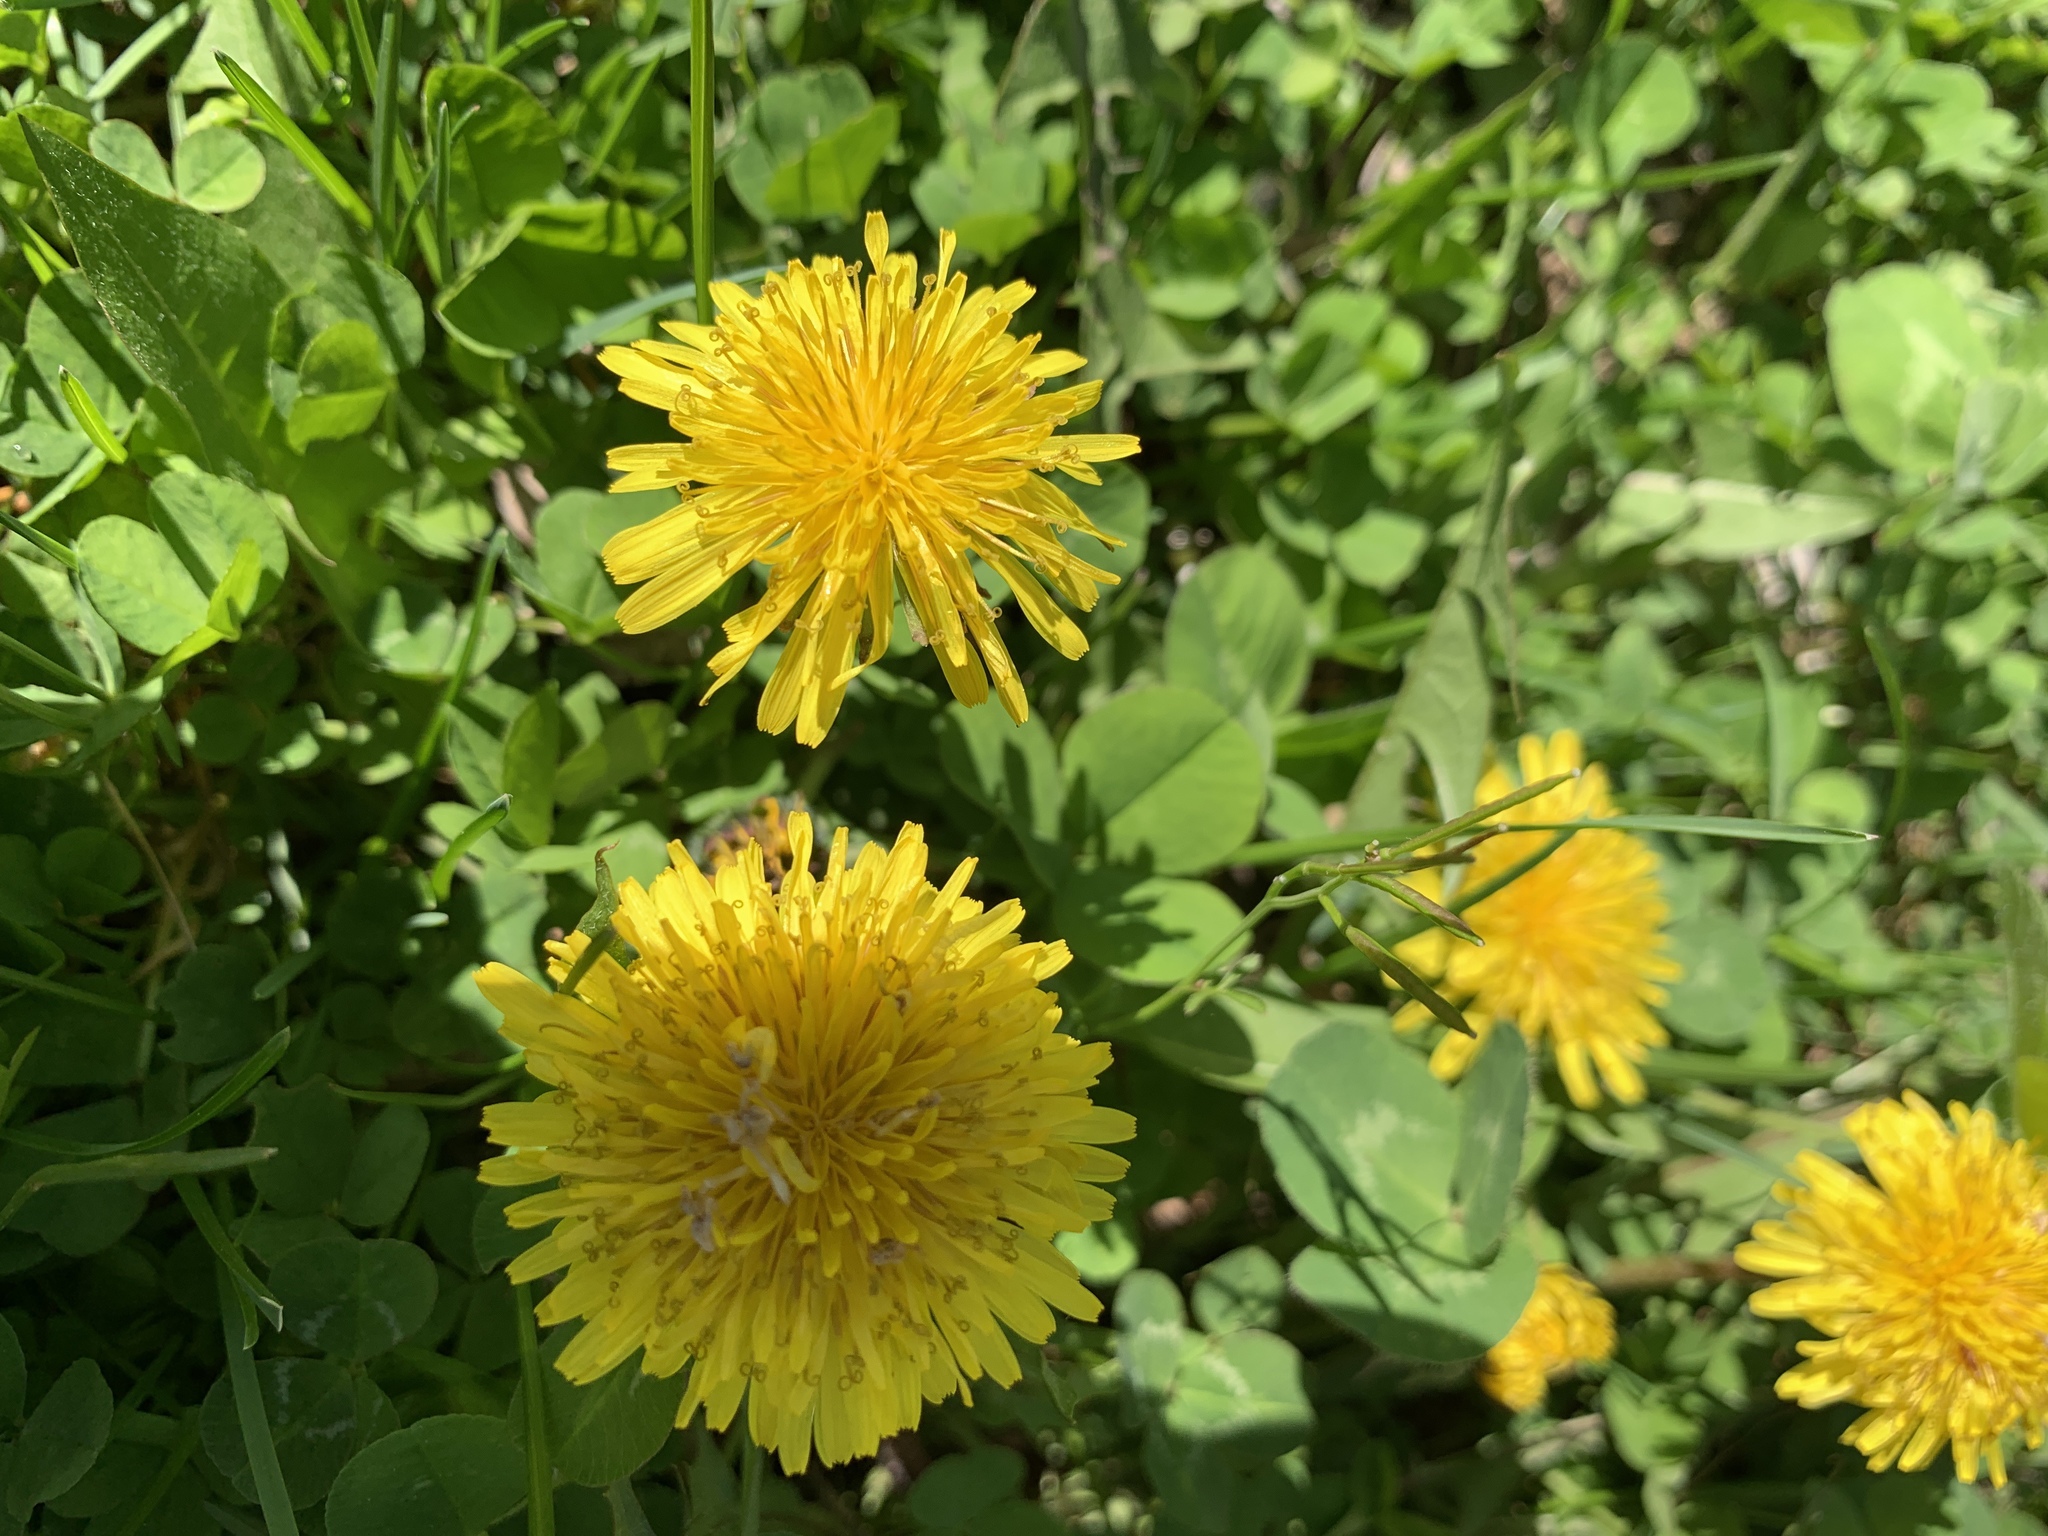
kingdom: Plantae
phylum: Tracheophyta
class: Magnoliopsida
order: Asterales
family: Asteraceae
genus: Taraxacum
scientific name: Taraxacum officinale
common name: Common dandelion
